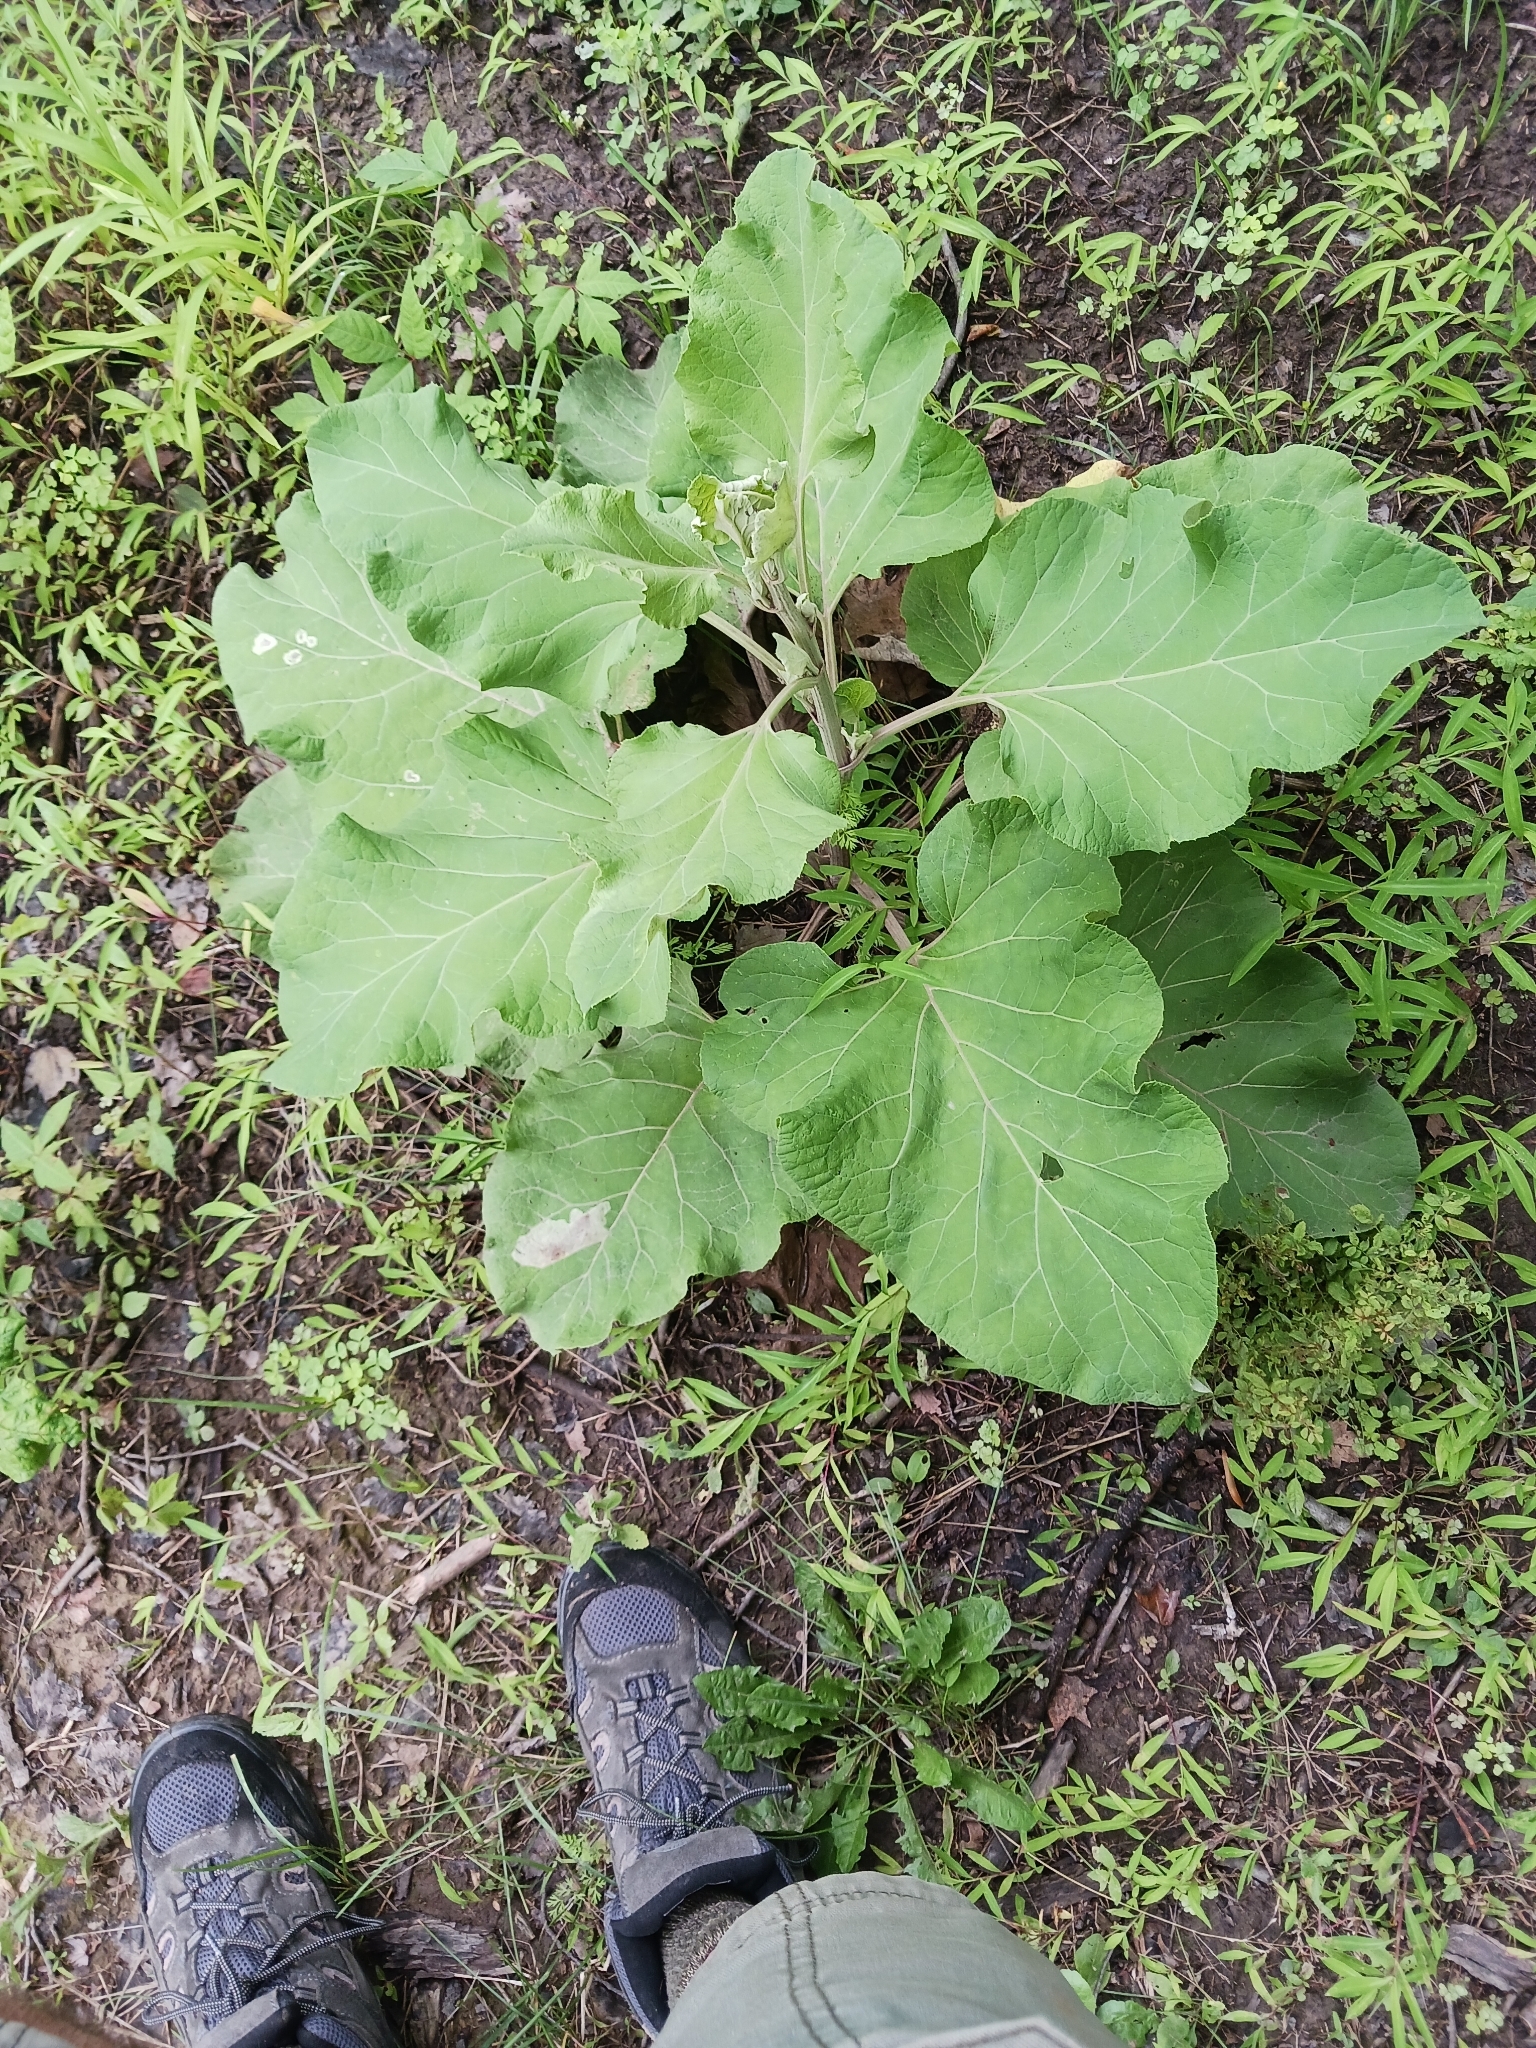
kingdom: Plantae
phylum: Tracheophyta
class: Magnoliopsida
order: Asterales
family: Asteraceae
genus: Arctium
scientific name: Arctium lappa
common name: Greater burdock
